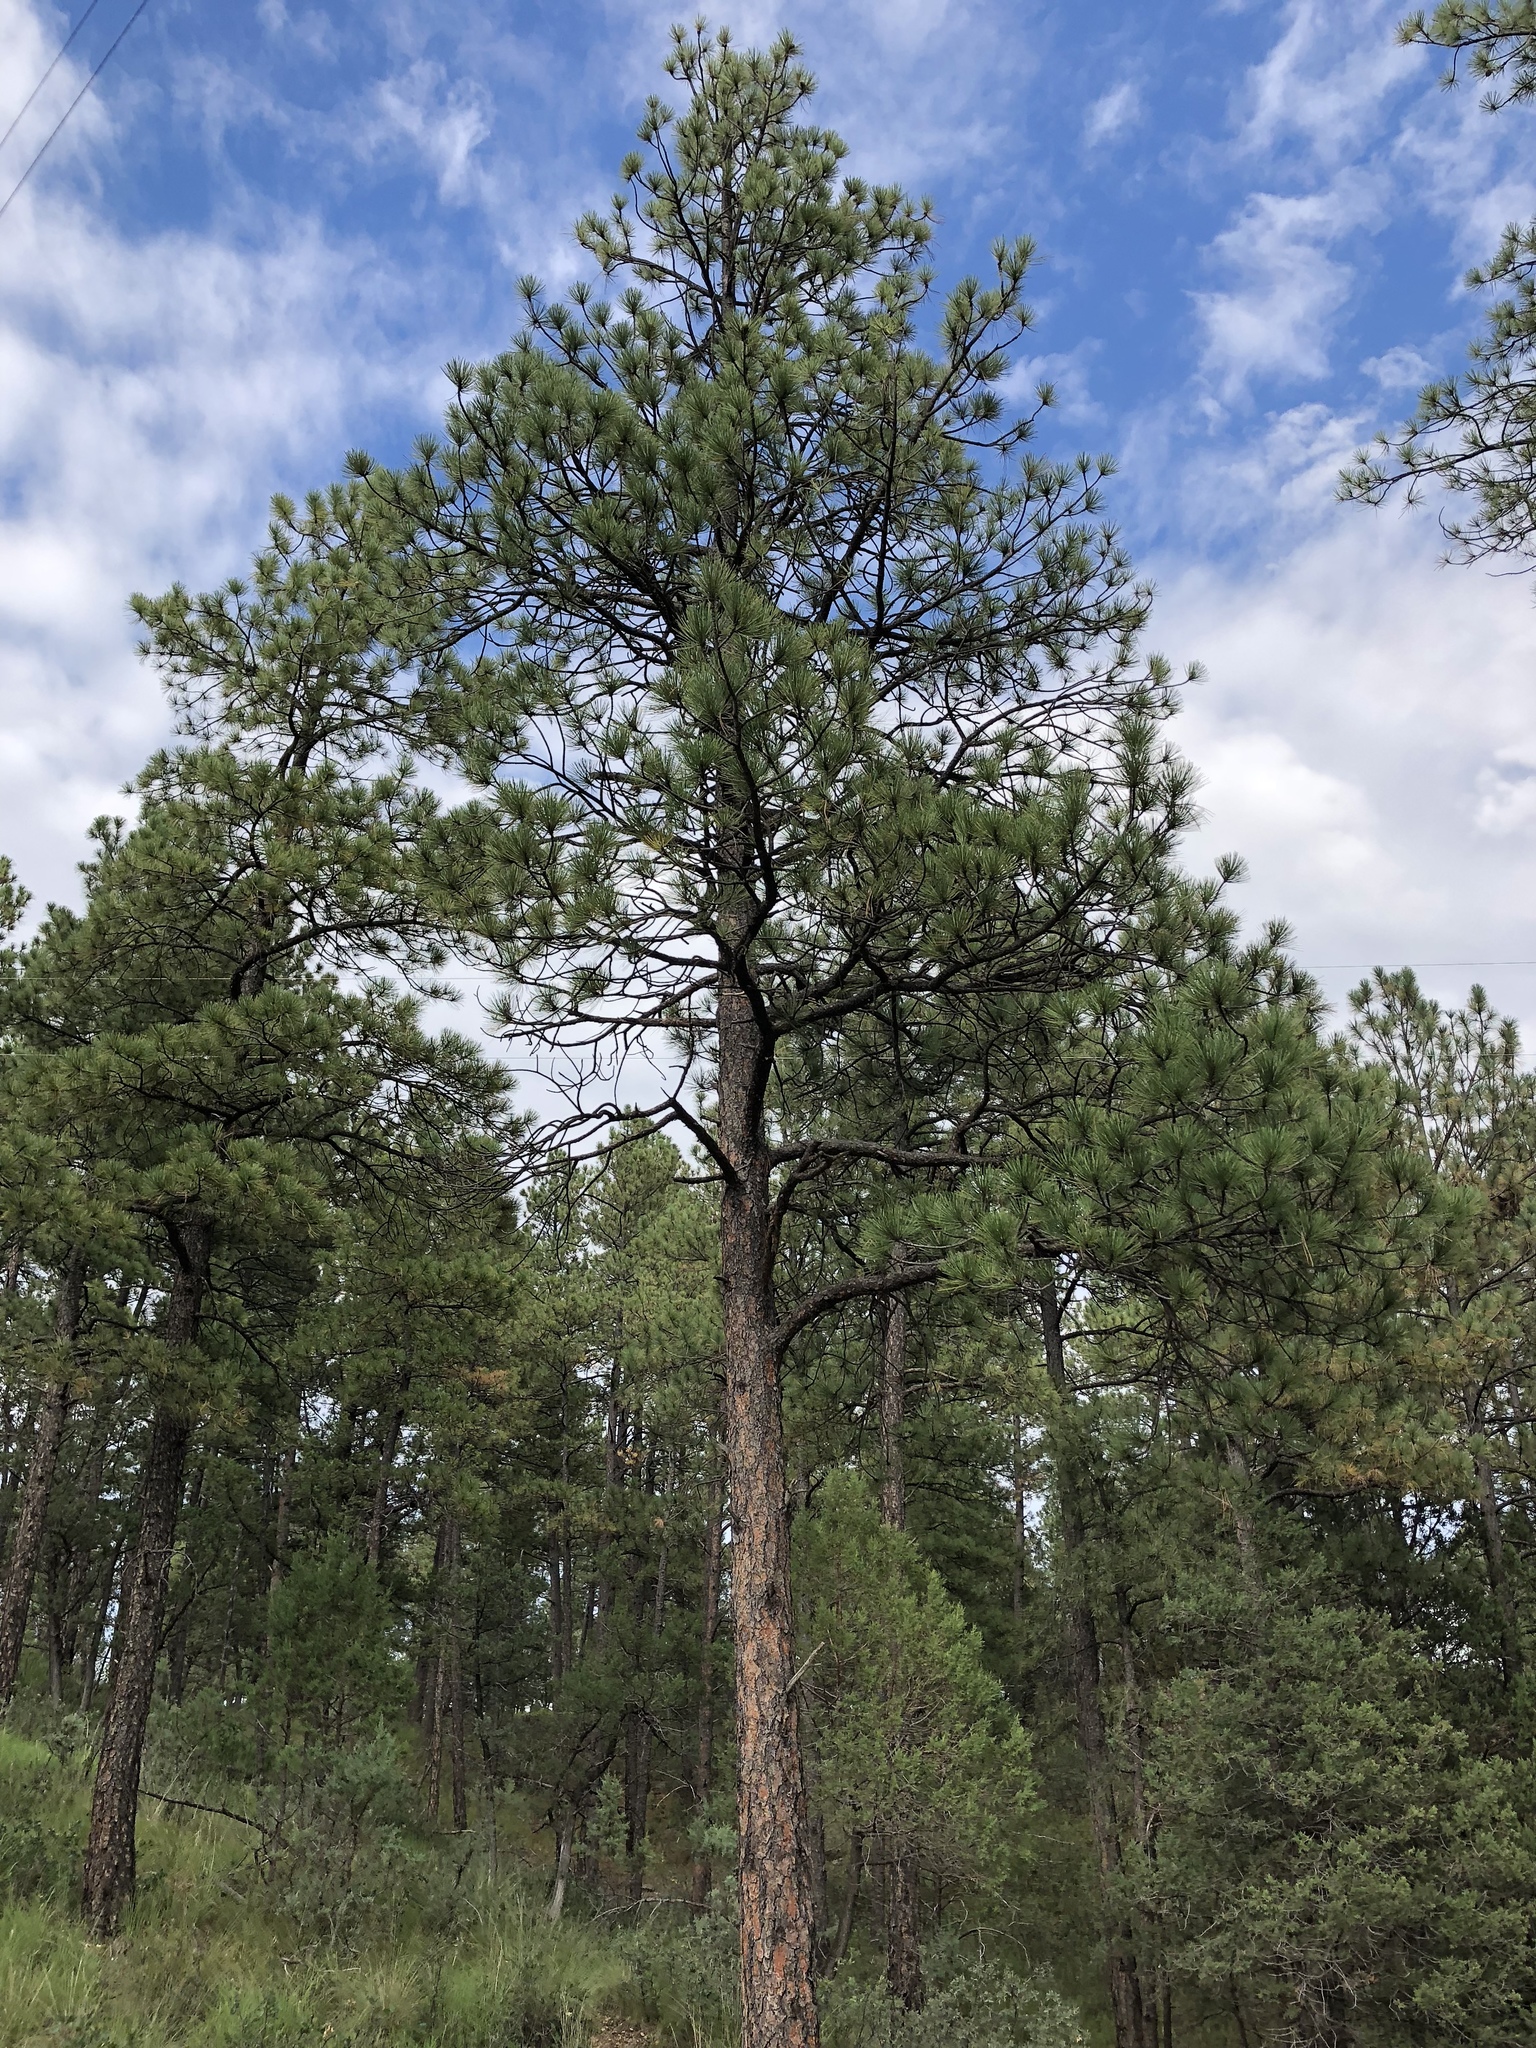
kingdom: Plantae
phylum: Tracheophyta
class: Pinopsida
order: Pinales
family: Pinaceae
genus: Pinus
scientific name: Pinus ponderosa
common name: Western yellow-pine
